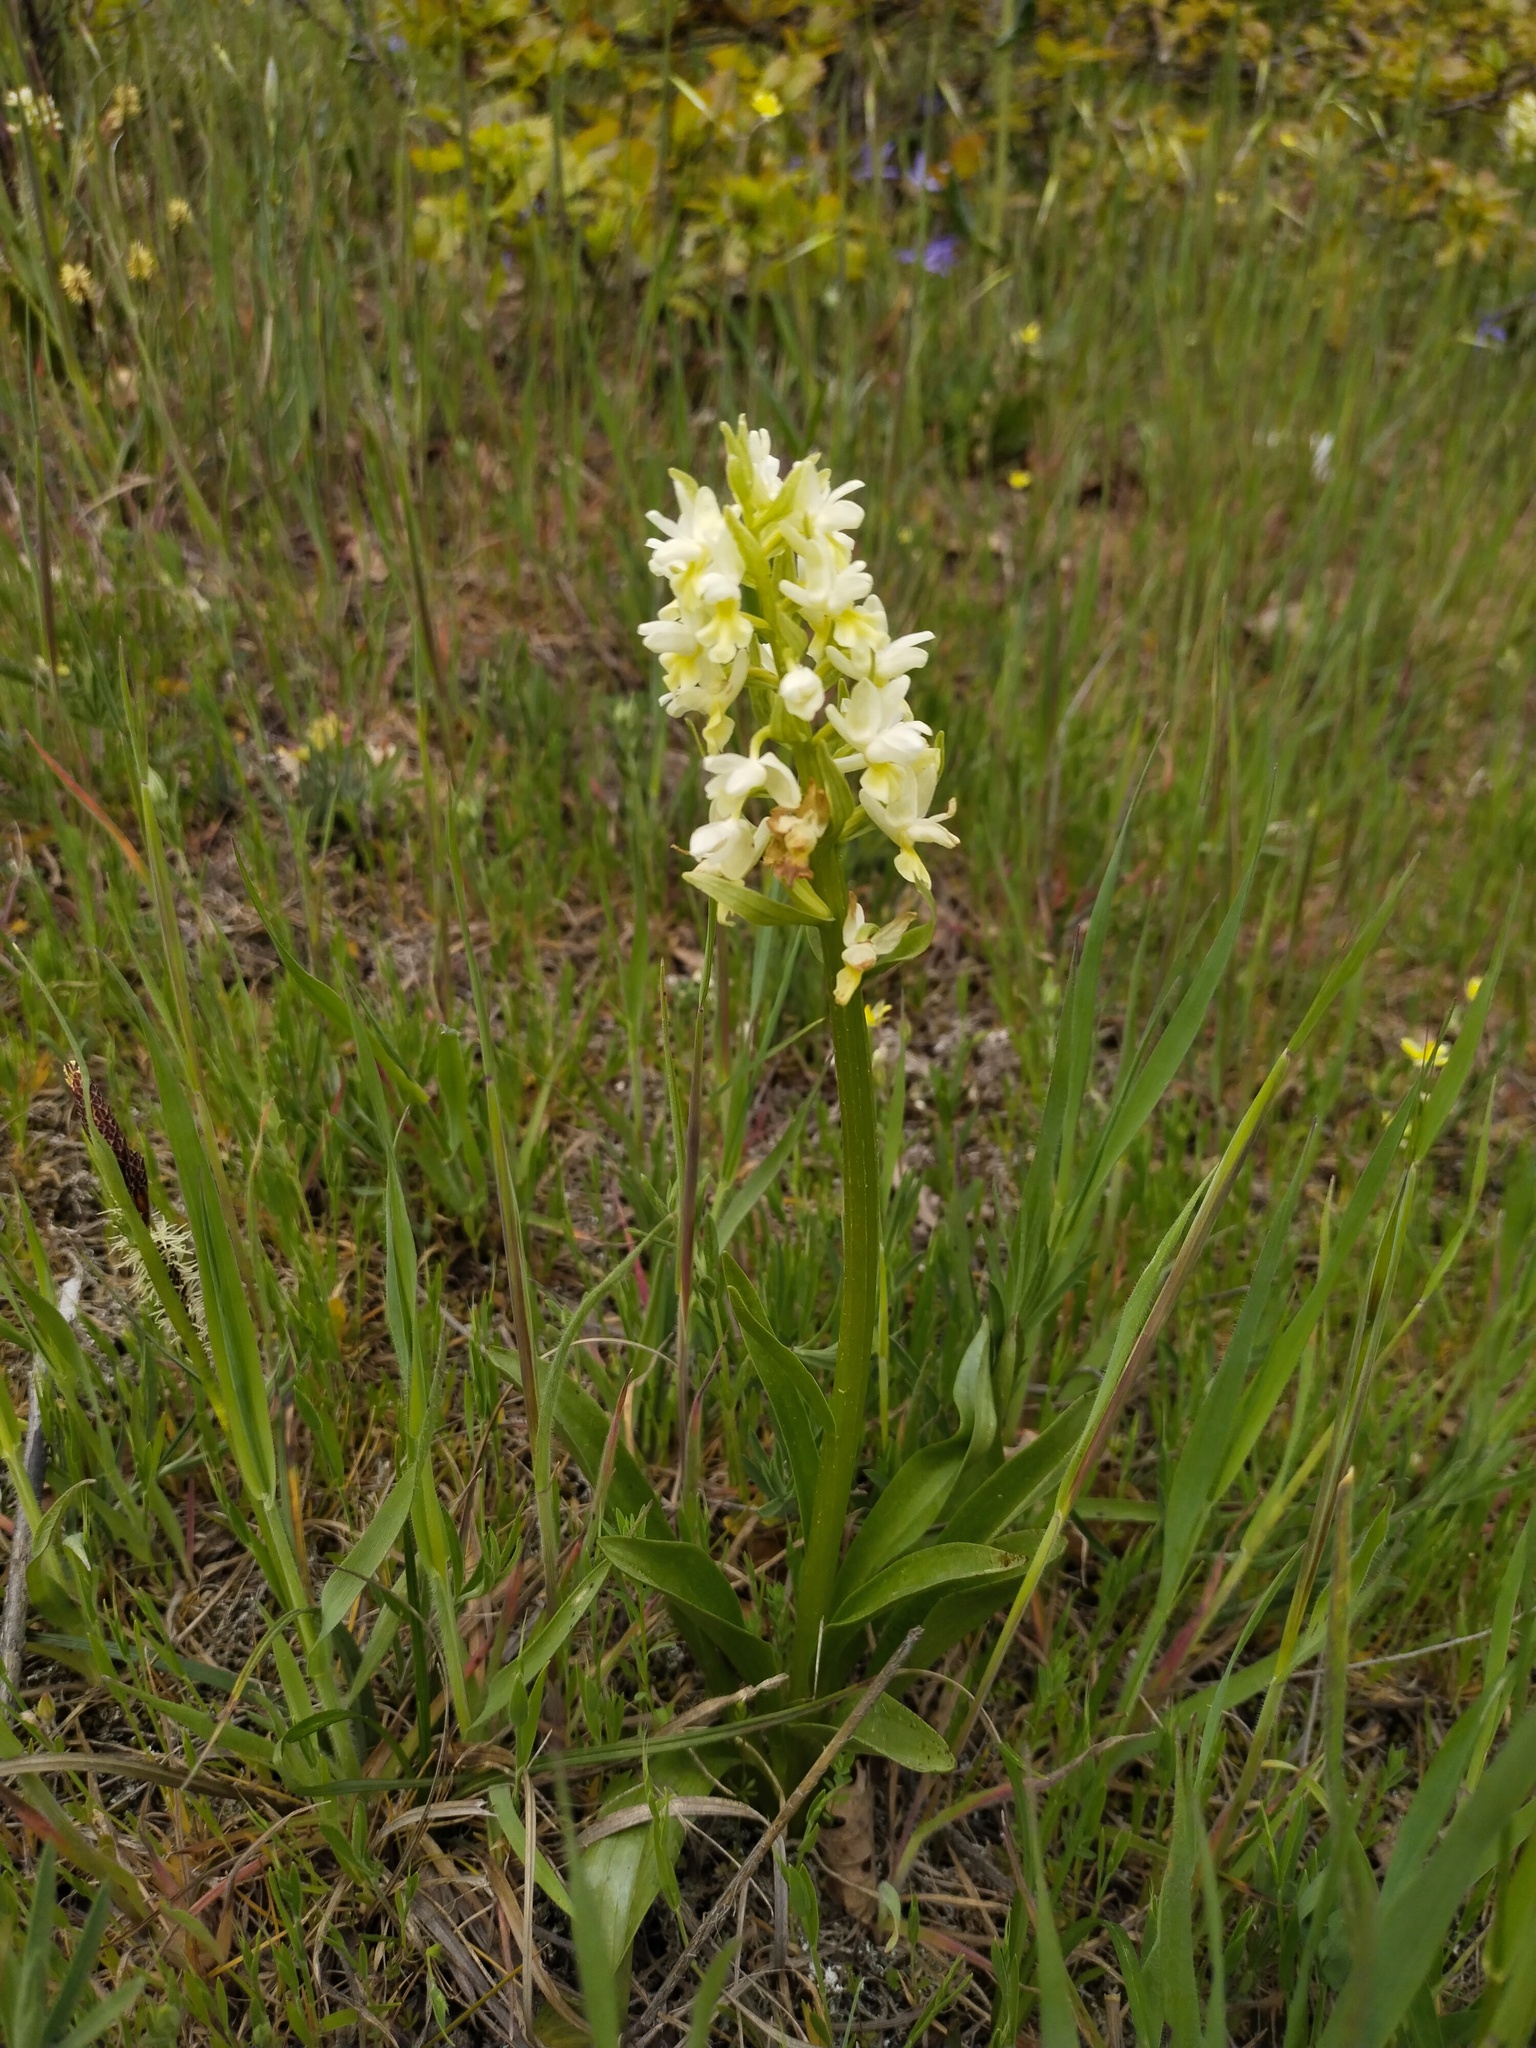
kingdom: Plantae
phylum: Tracheophyta
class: Liliopsida
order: Asparagales
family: Orchidaceae
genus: Dactylorhiza
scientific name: Dactylorhiza romana
